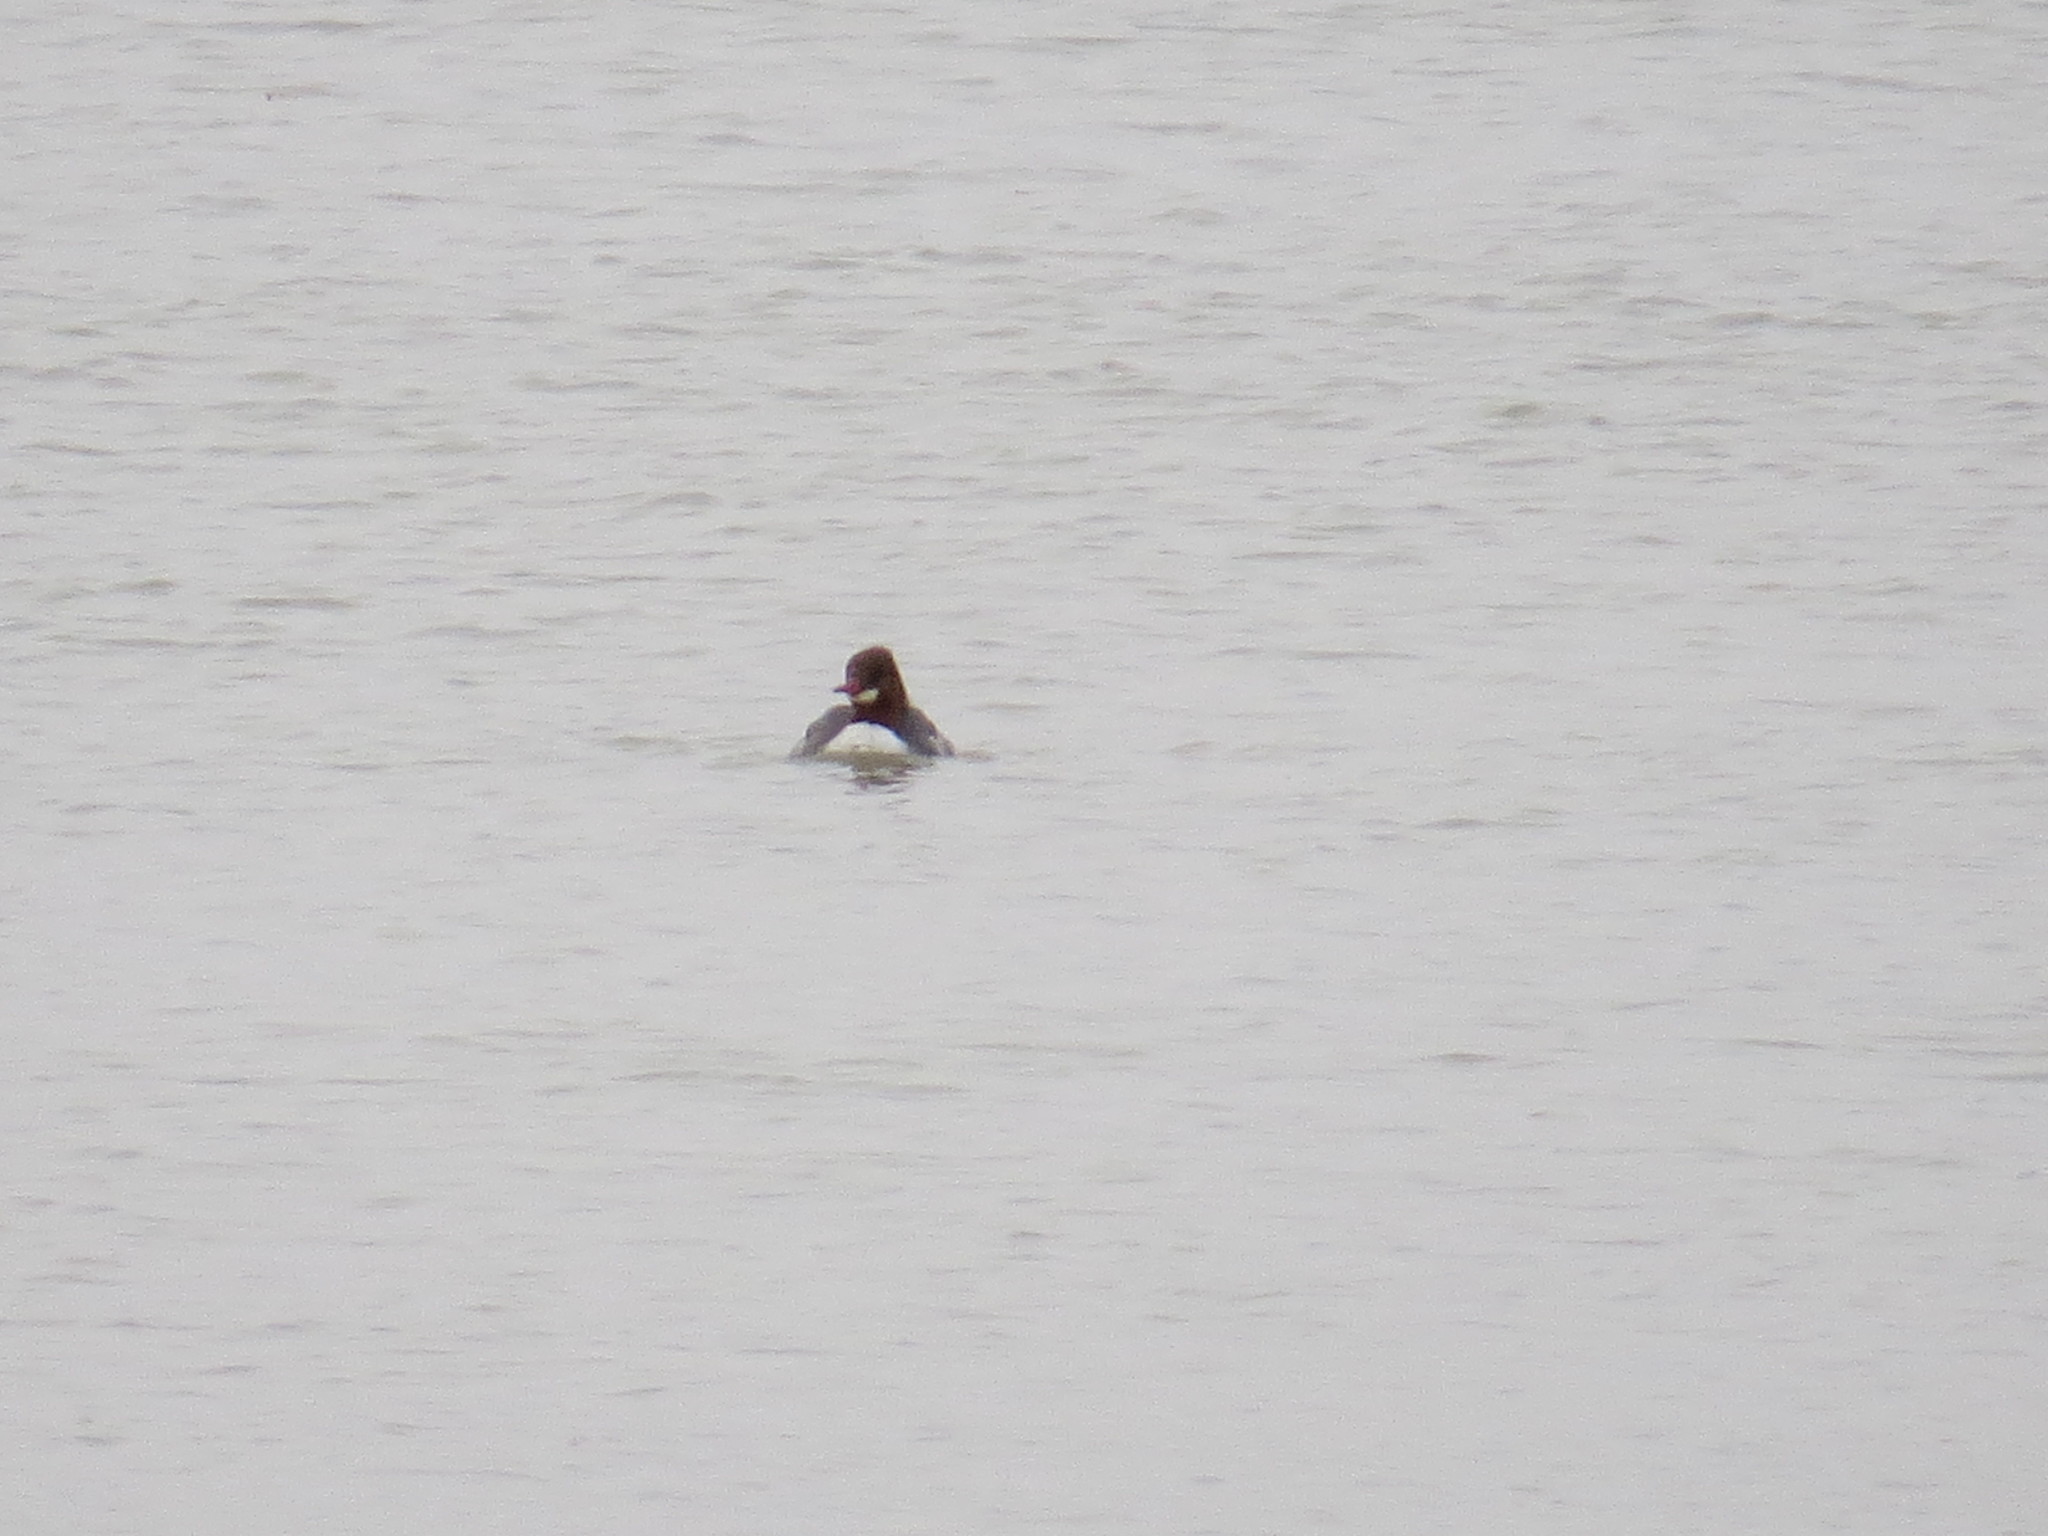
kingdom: Animalia
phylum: Chordata
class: Aves
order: Anseriformes
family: Anatidae
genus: Mergus
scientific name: Mergus merganser
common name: Common merganser
